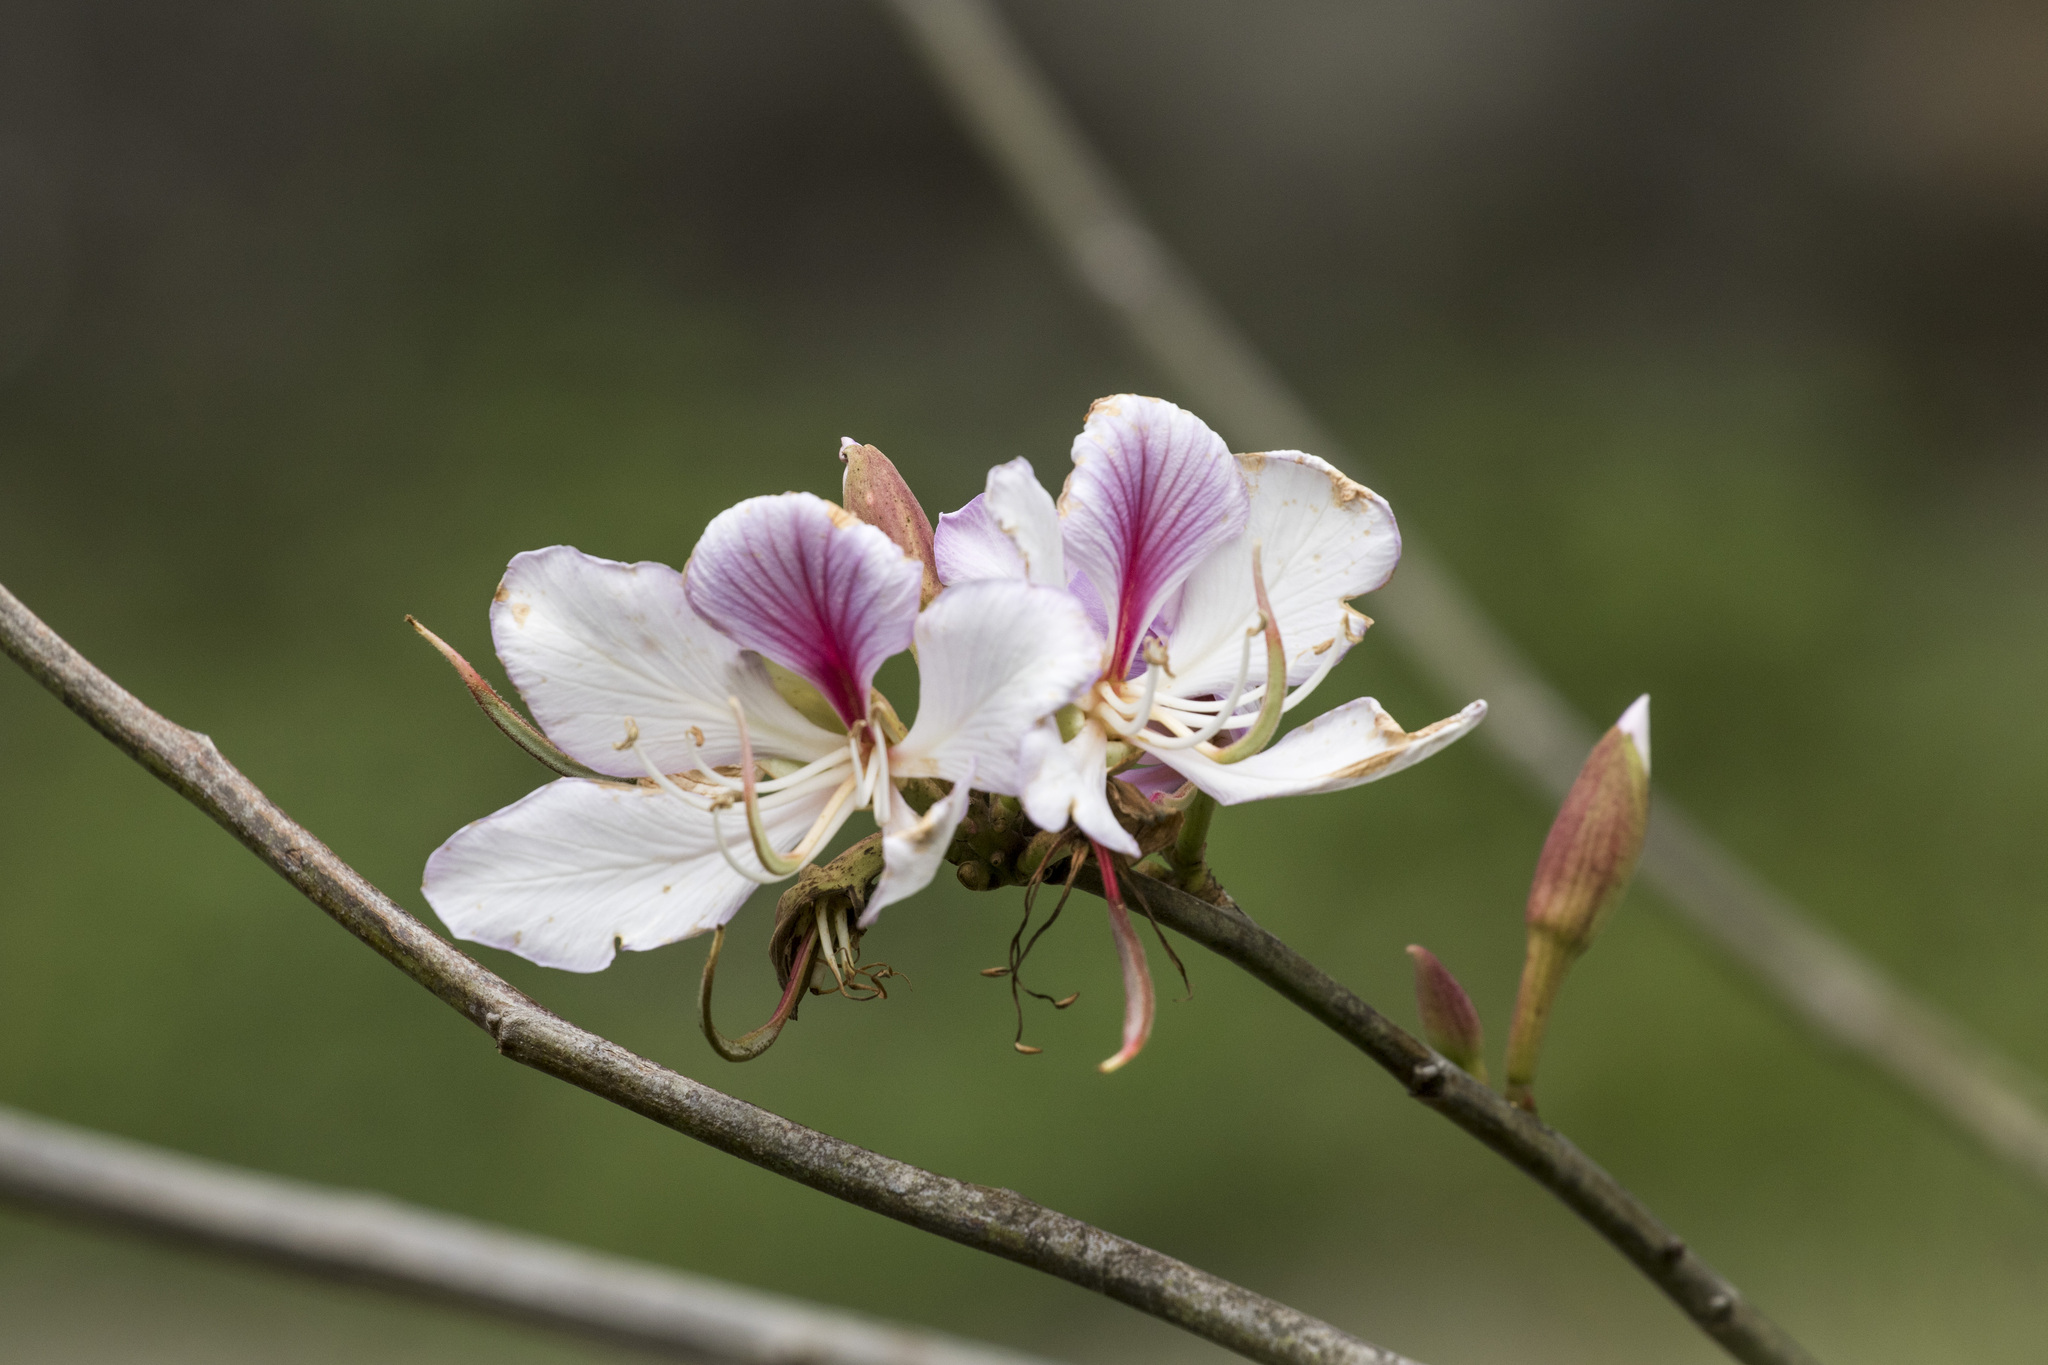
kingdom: Plantae
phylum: Tracheophyta
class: Magnoliopsida
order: Fabales
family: Fabaceae
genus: Bauhinia
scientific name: Bauhinia variegata
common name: Mountain ebony
